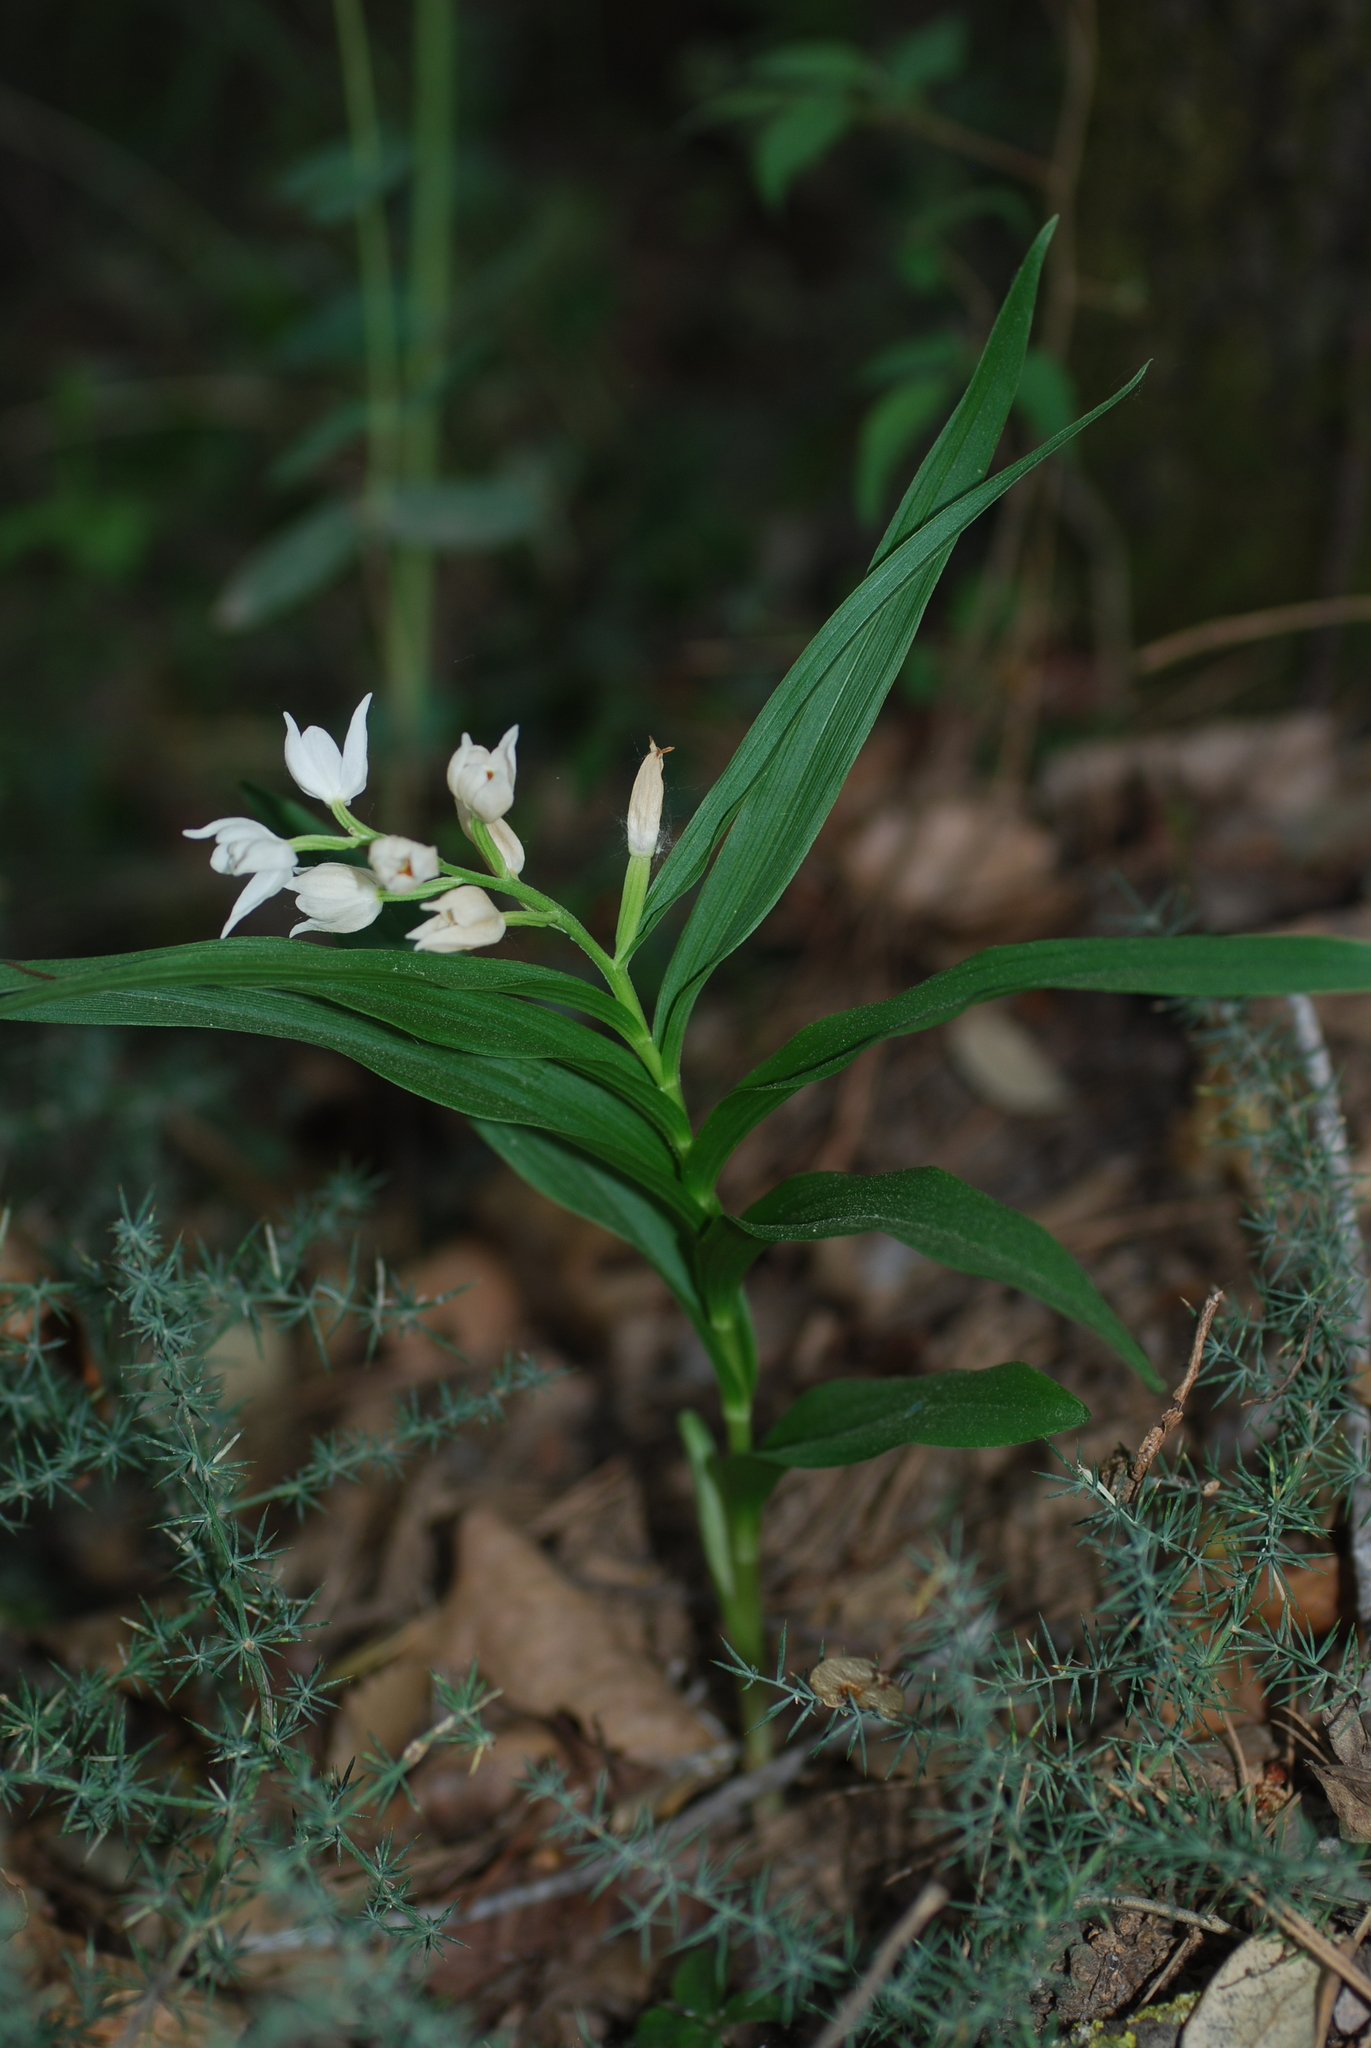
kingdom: Plantae
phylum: Tracheophyta
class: Liliopsida
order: Asparagales
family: Orchidaceae
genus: Cephalanthera
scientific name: Cephalanthera longifolia
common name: Narrow-leaved helleborine
